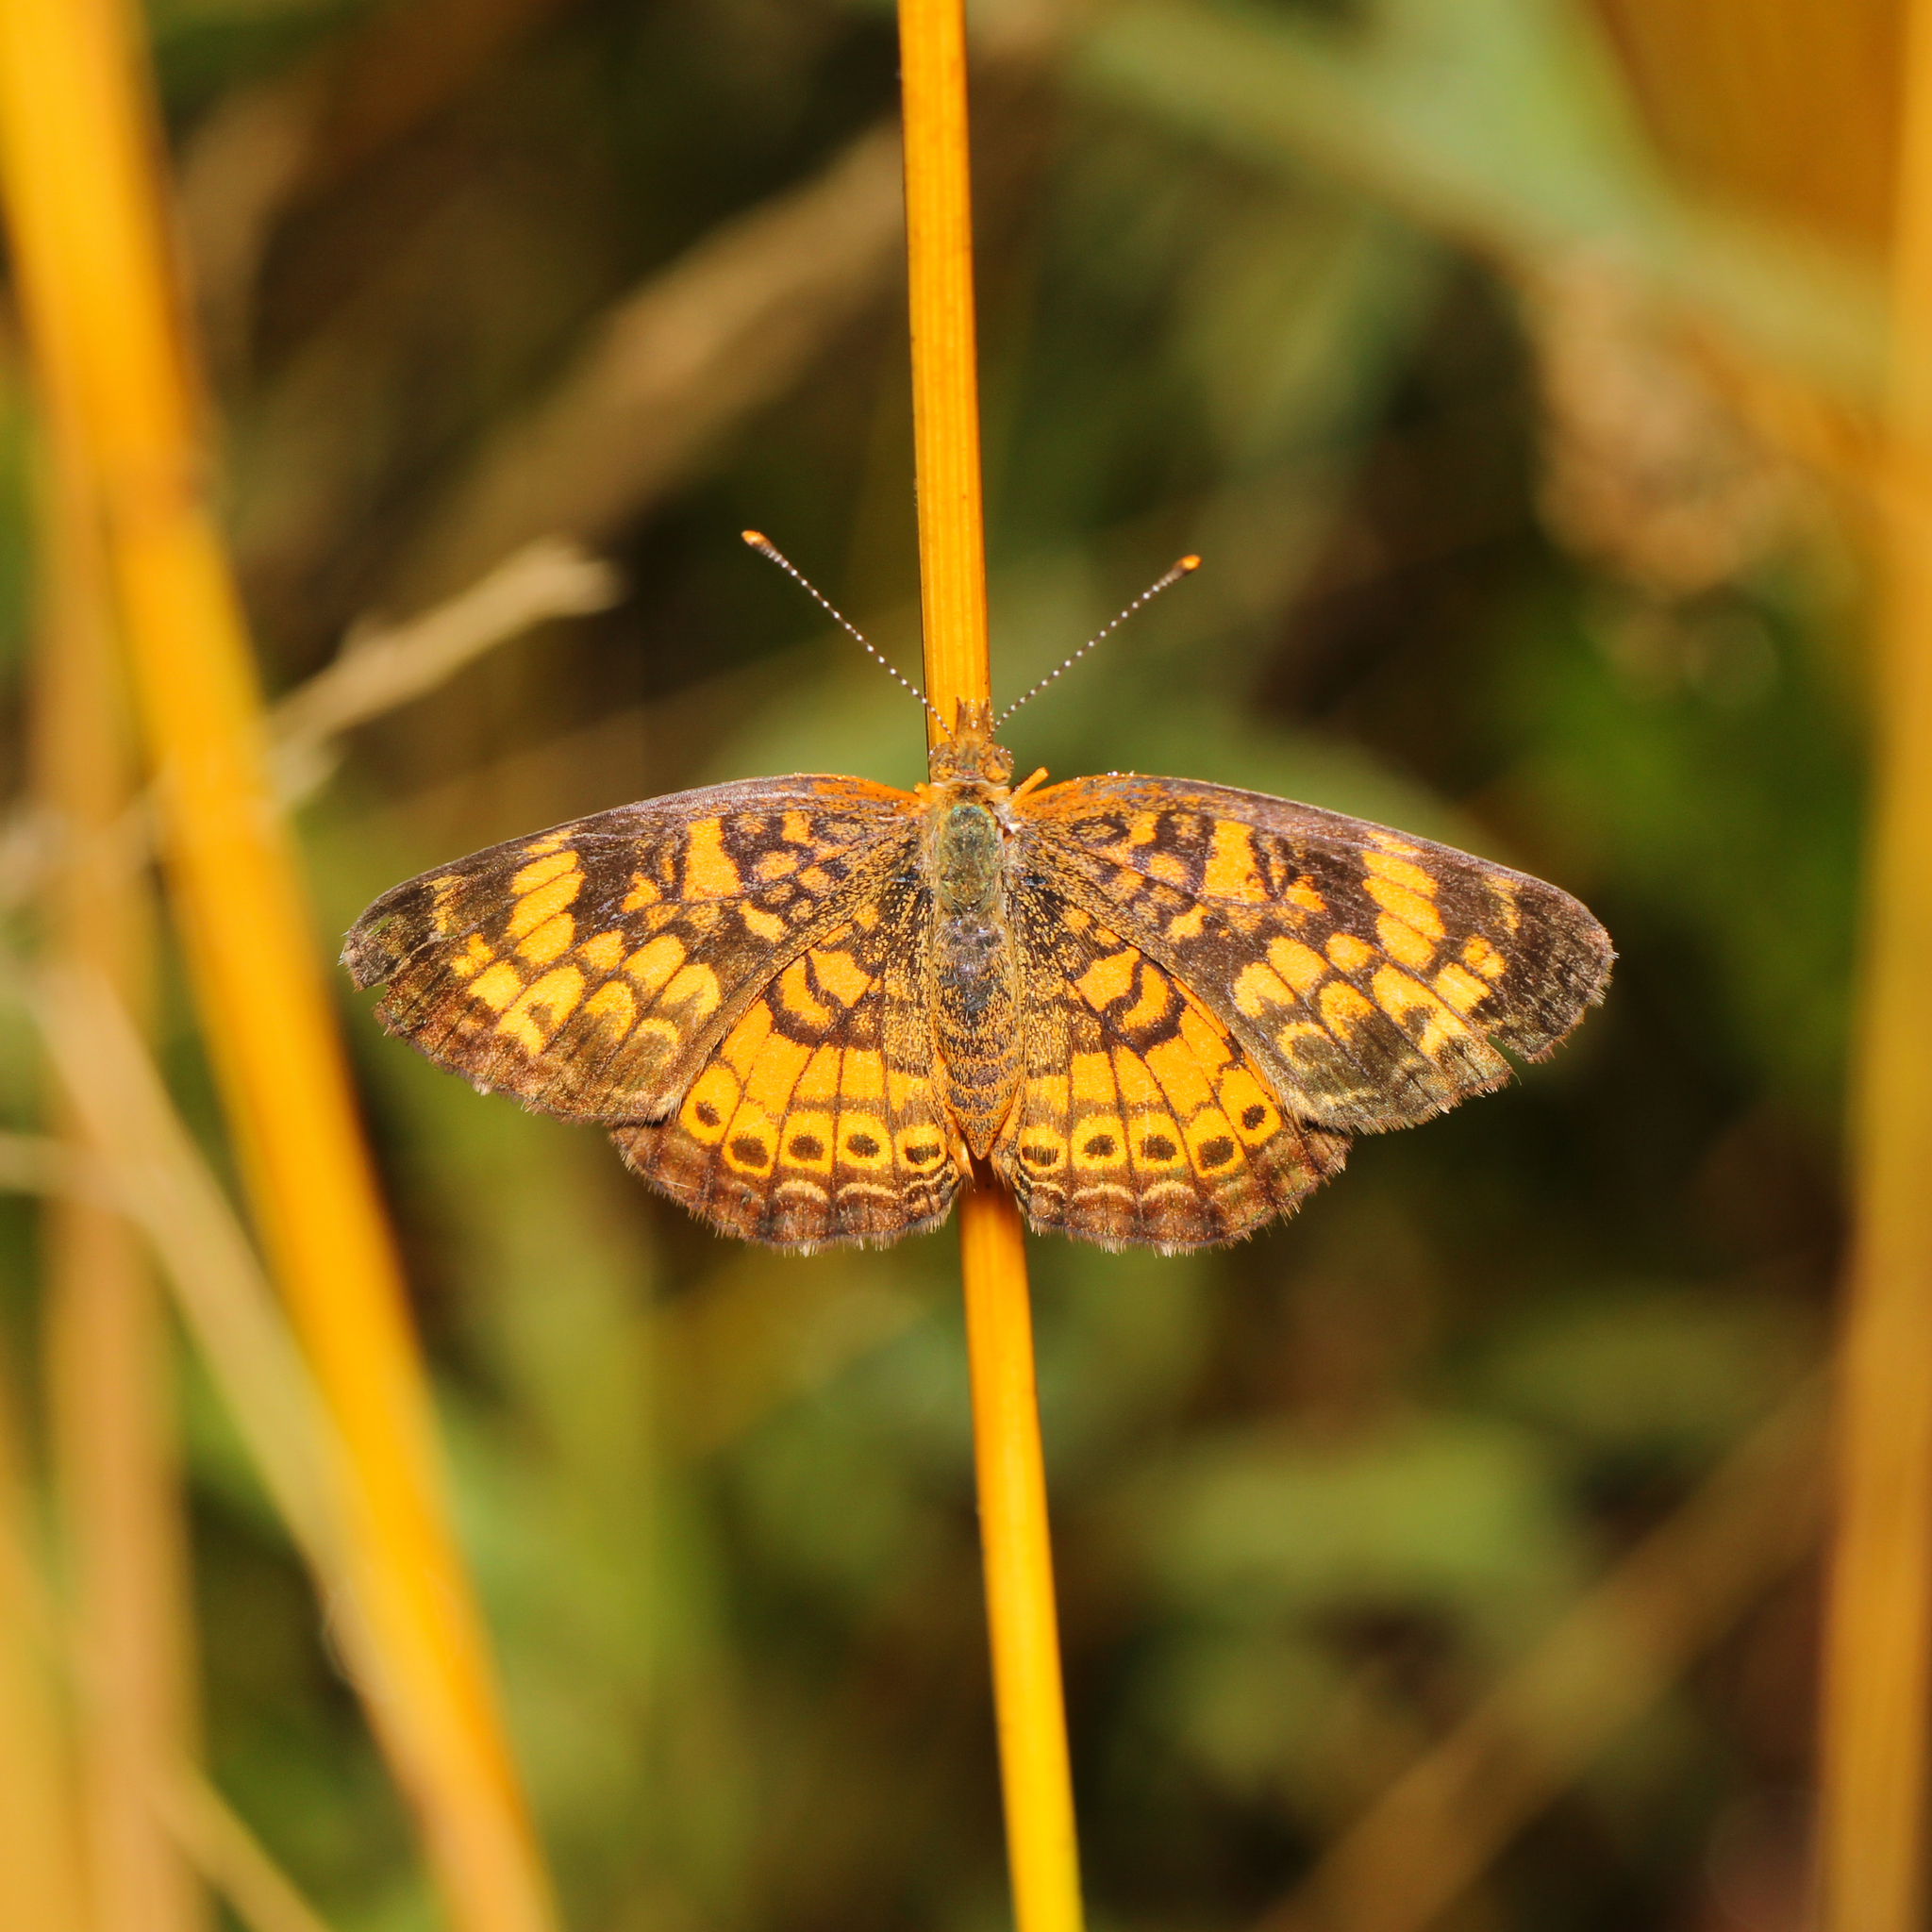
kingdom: Animalia
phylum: Arthropoda
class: Insecta
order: Lepidoptera
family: Nymphalidae
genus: Phyciodes
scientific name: Phyciodes tharos
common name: Pearl crescent
